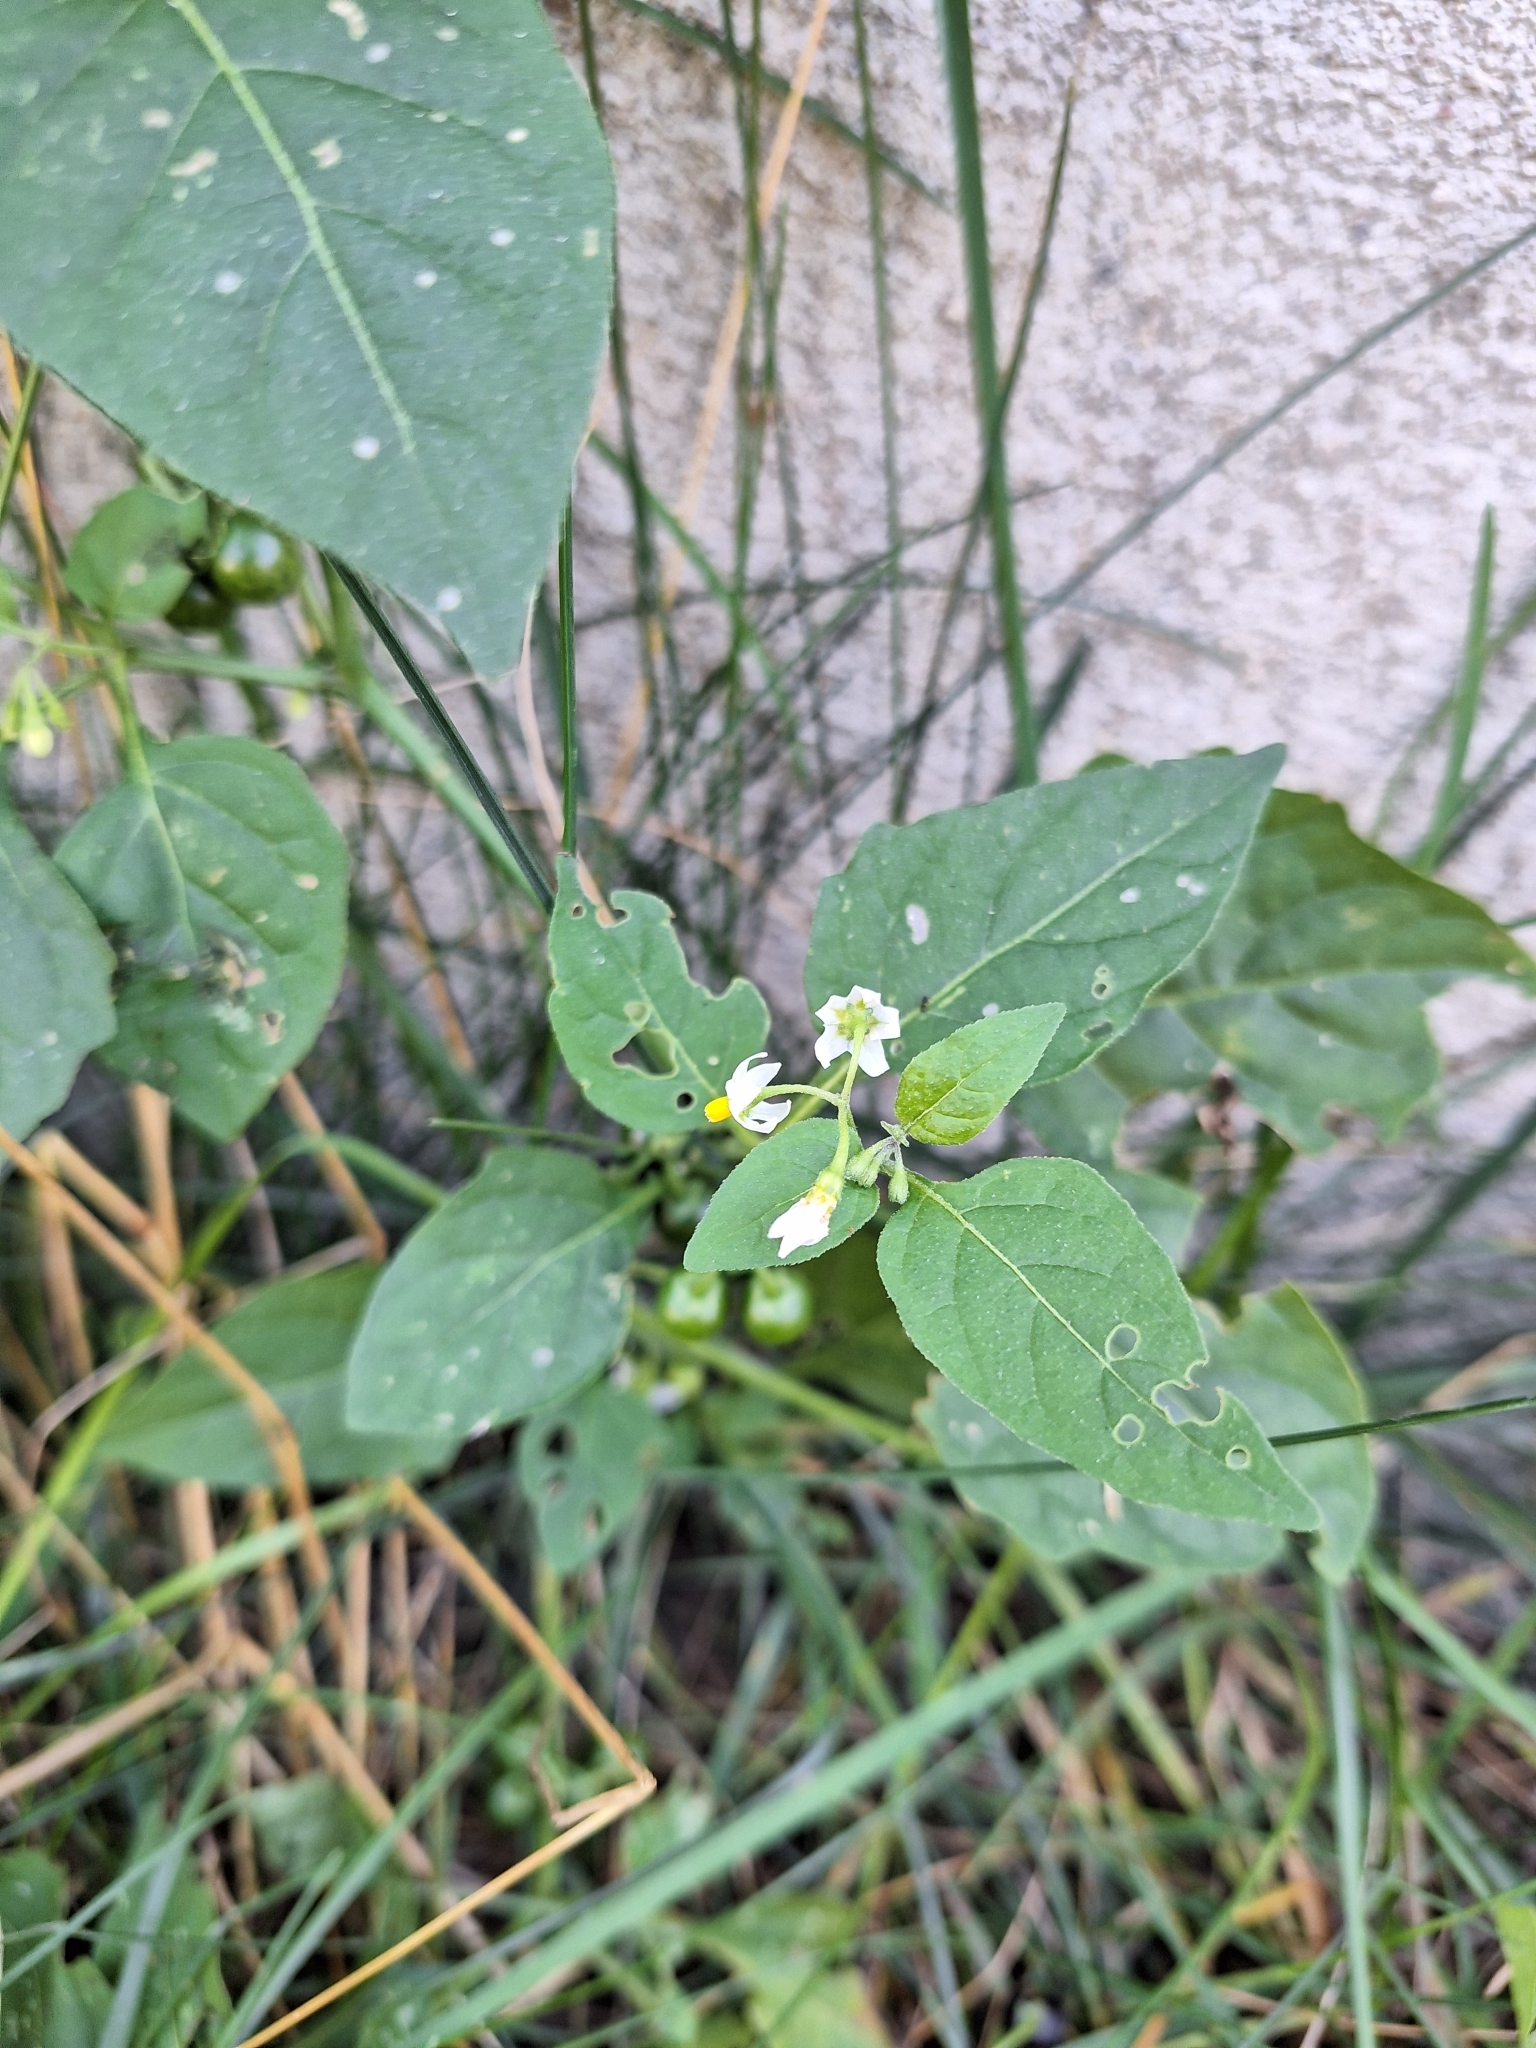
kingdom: Plantae
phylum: Tracheophyta
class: Magnoliopsida
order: Solanales
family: Solanaceae
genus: Solanum
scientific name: Solanum emulans
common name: Eastern black nightshade
